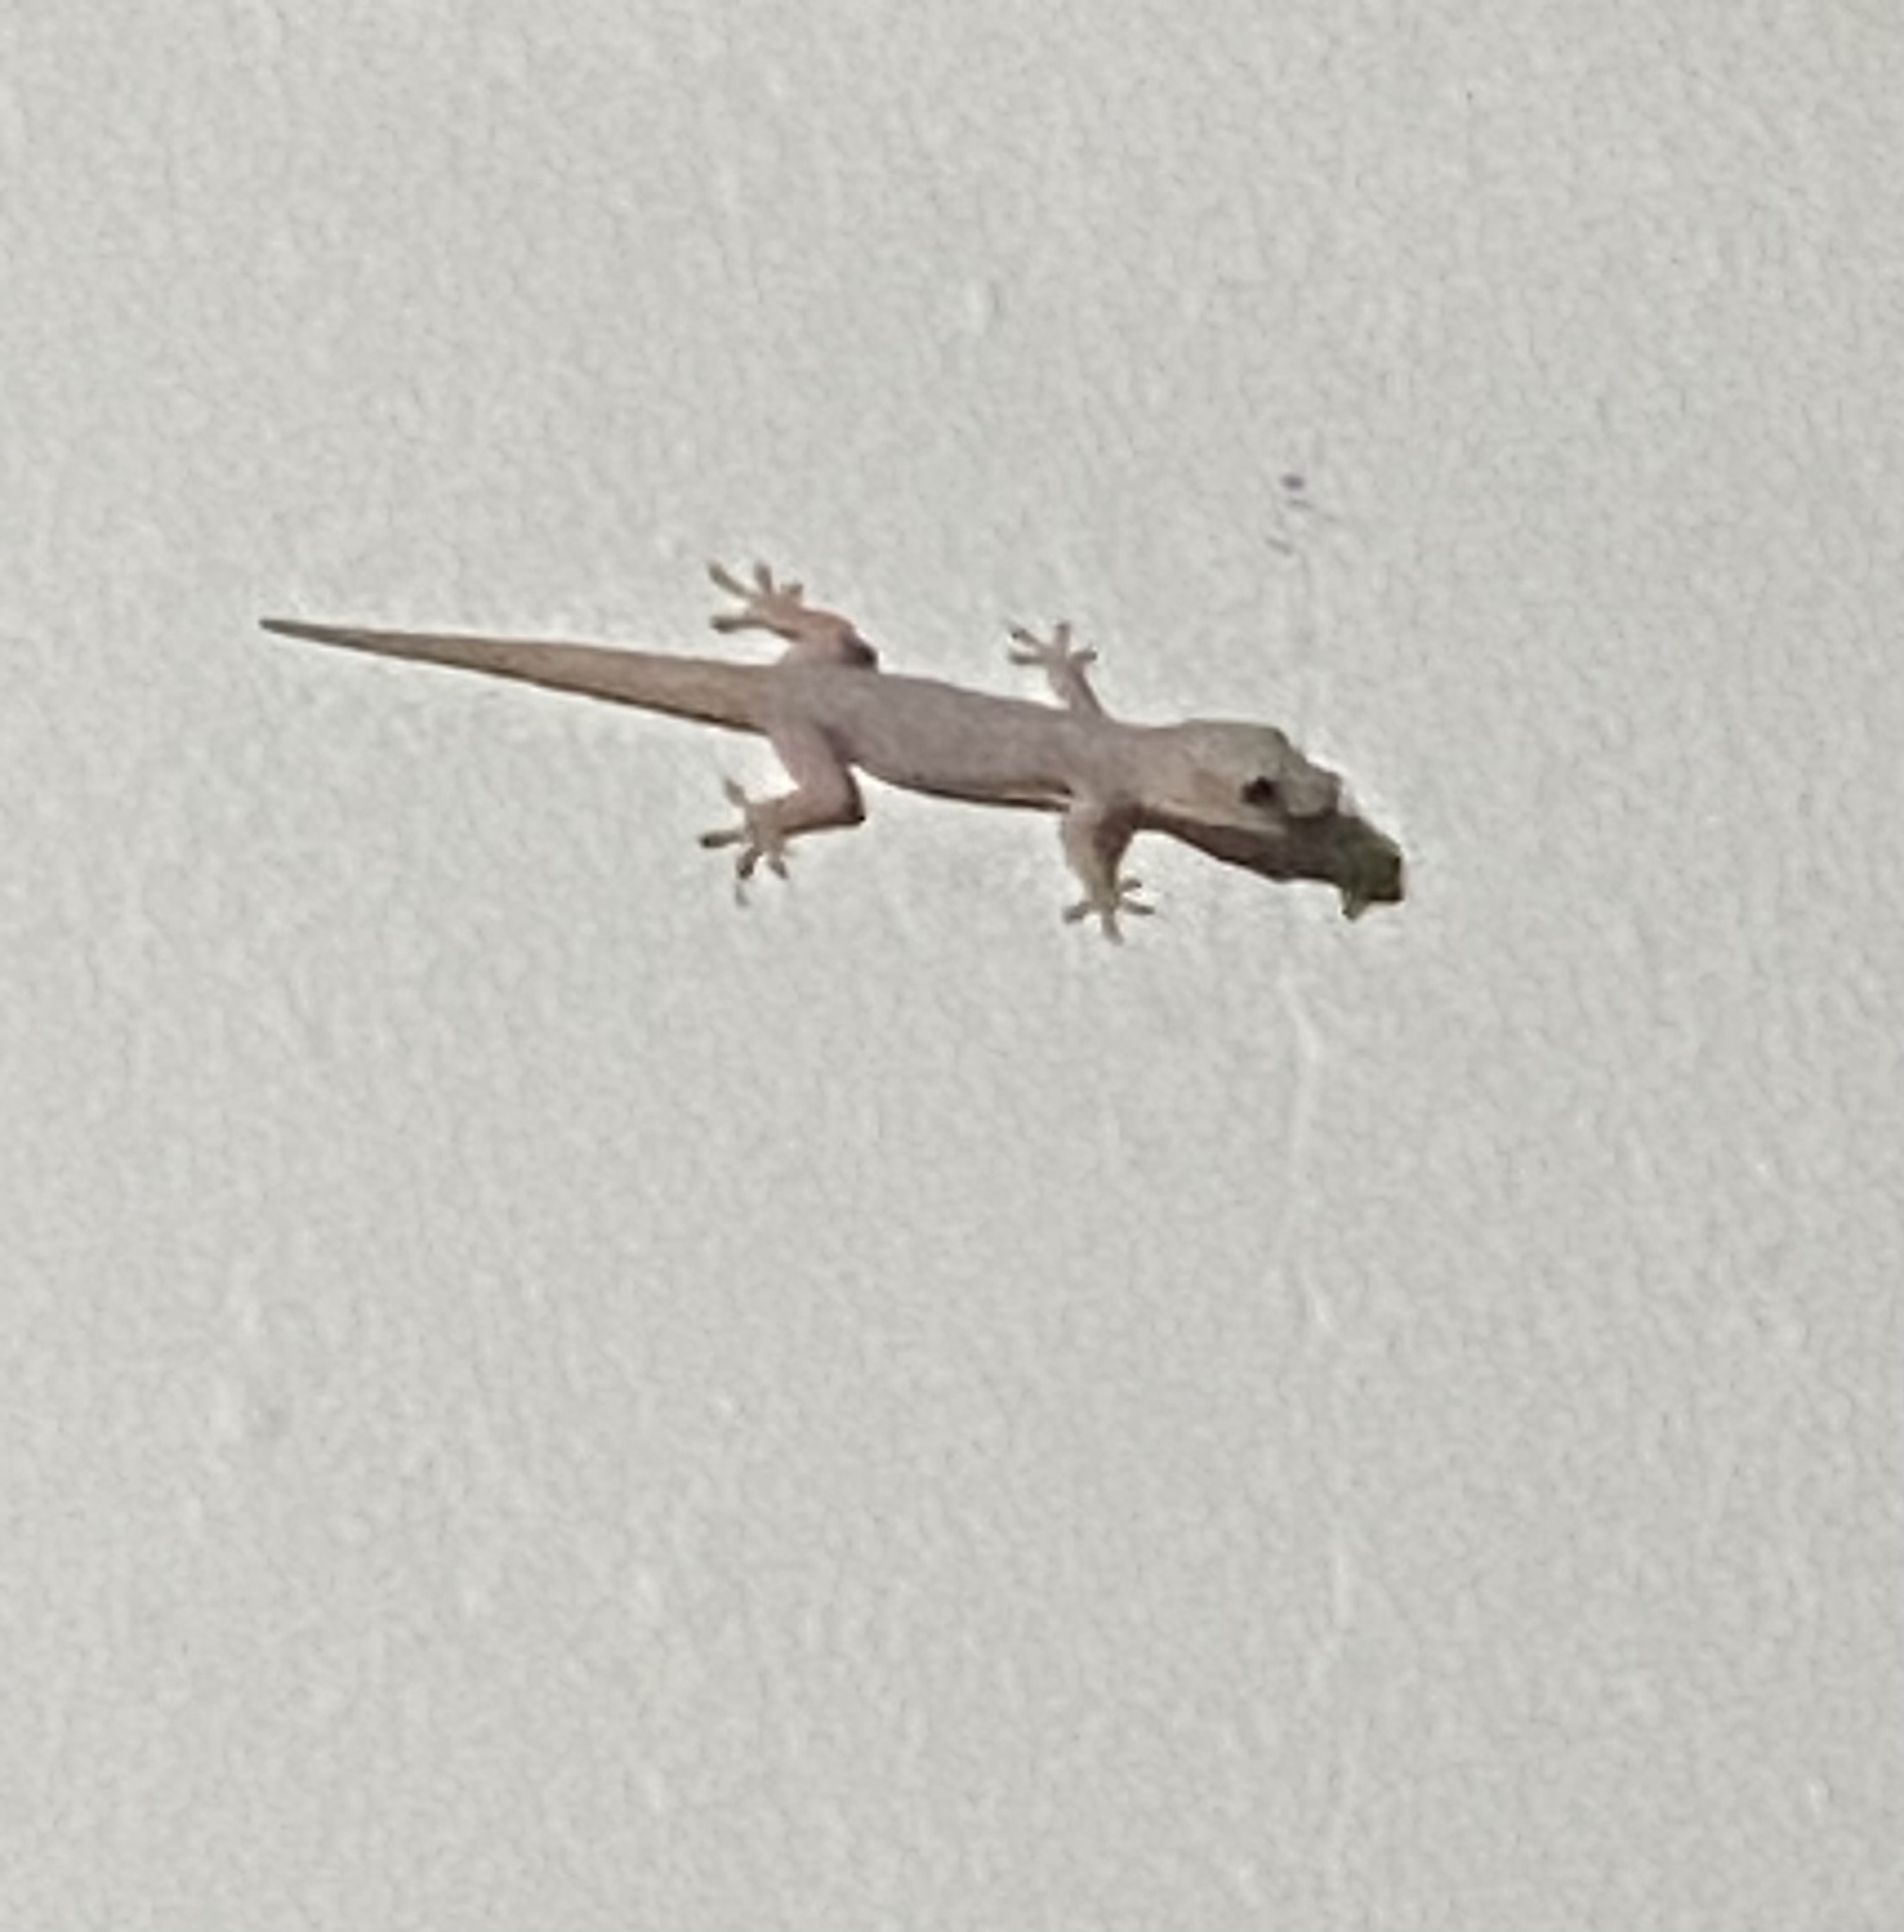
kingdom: Animalia
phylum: Chordata
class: Squamata
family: Gekkonidae
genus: Hemidactylus
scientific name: Hemidactylus frenatus
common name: Common house gecko
